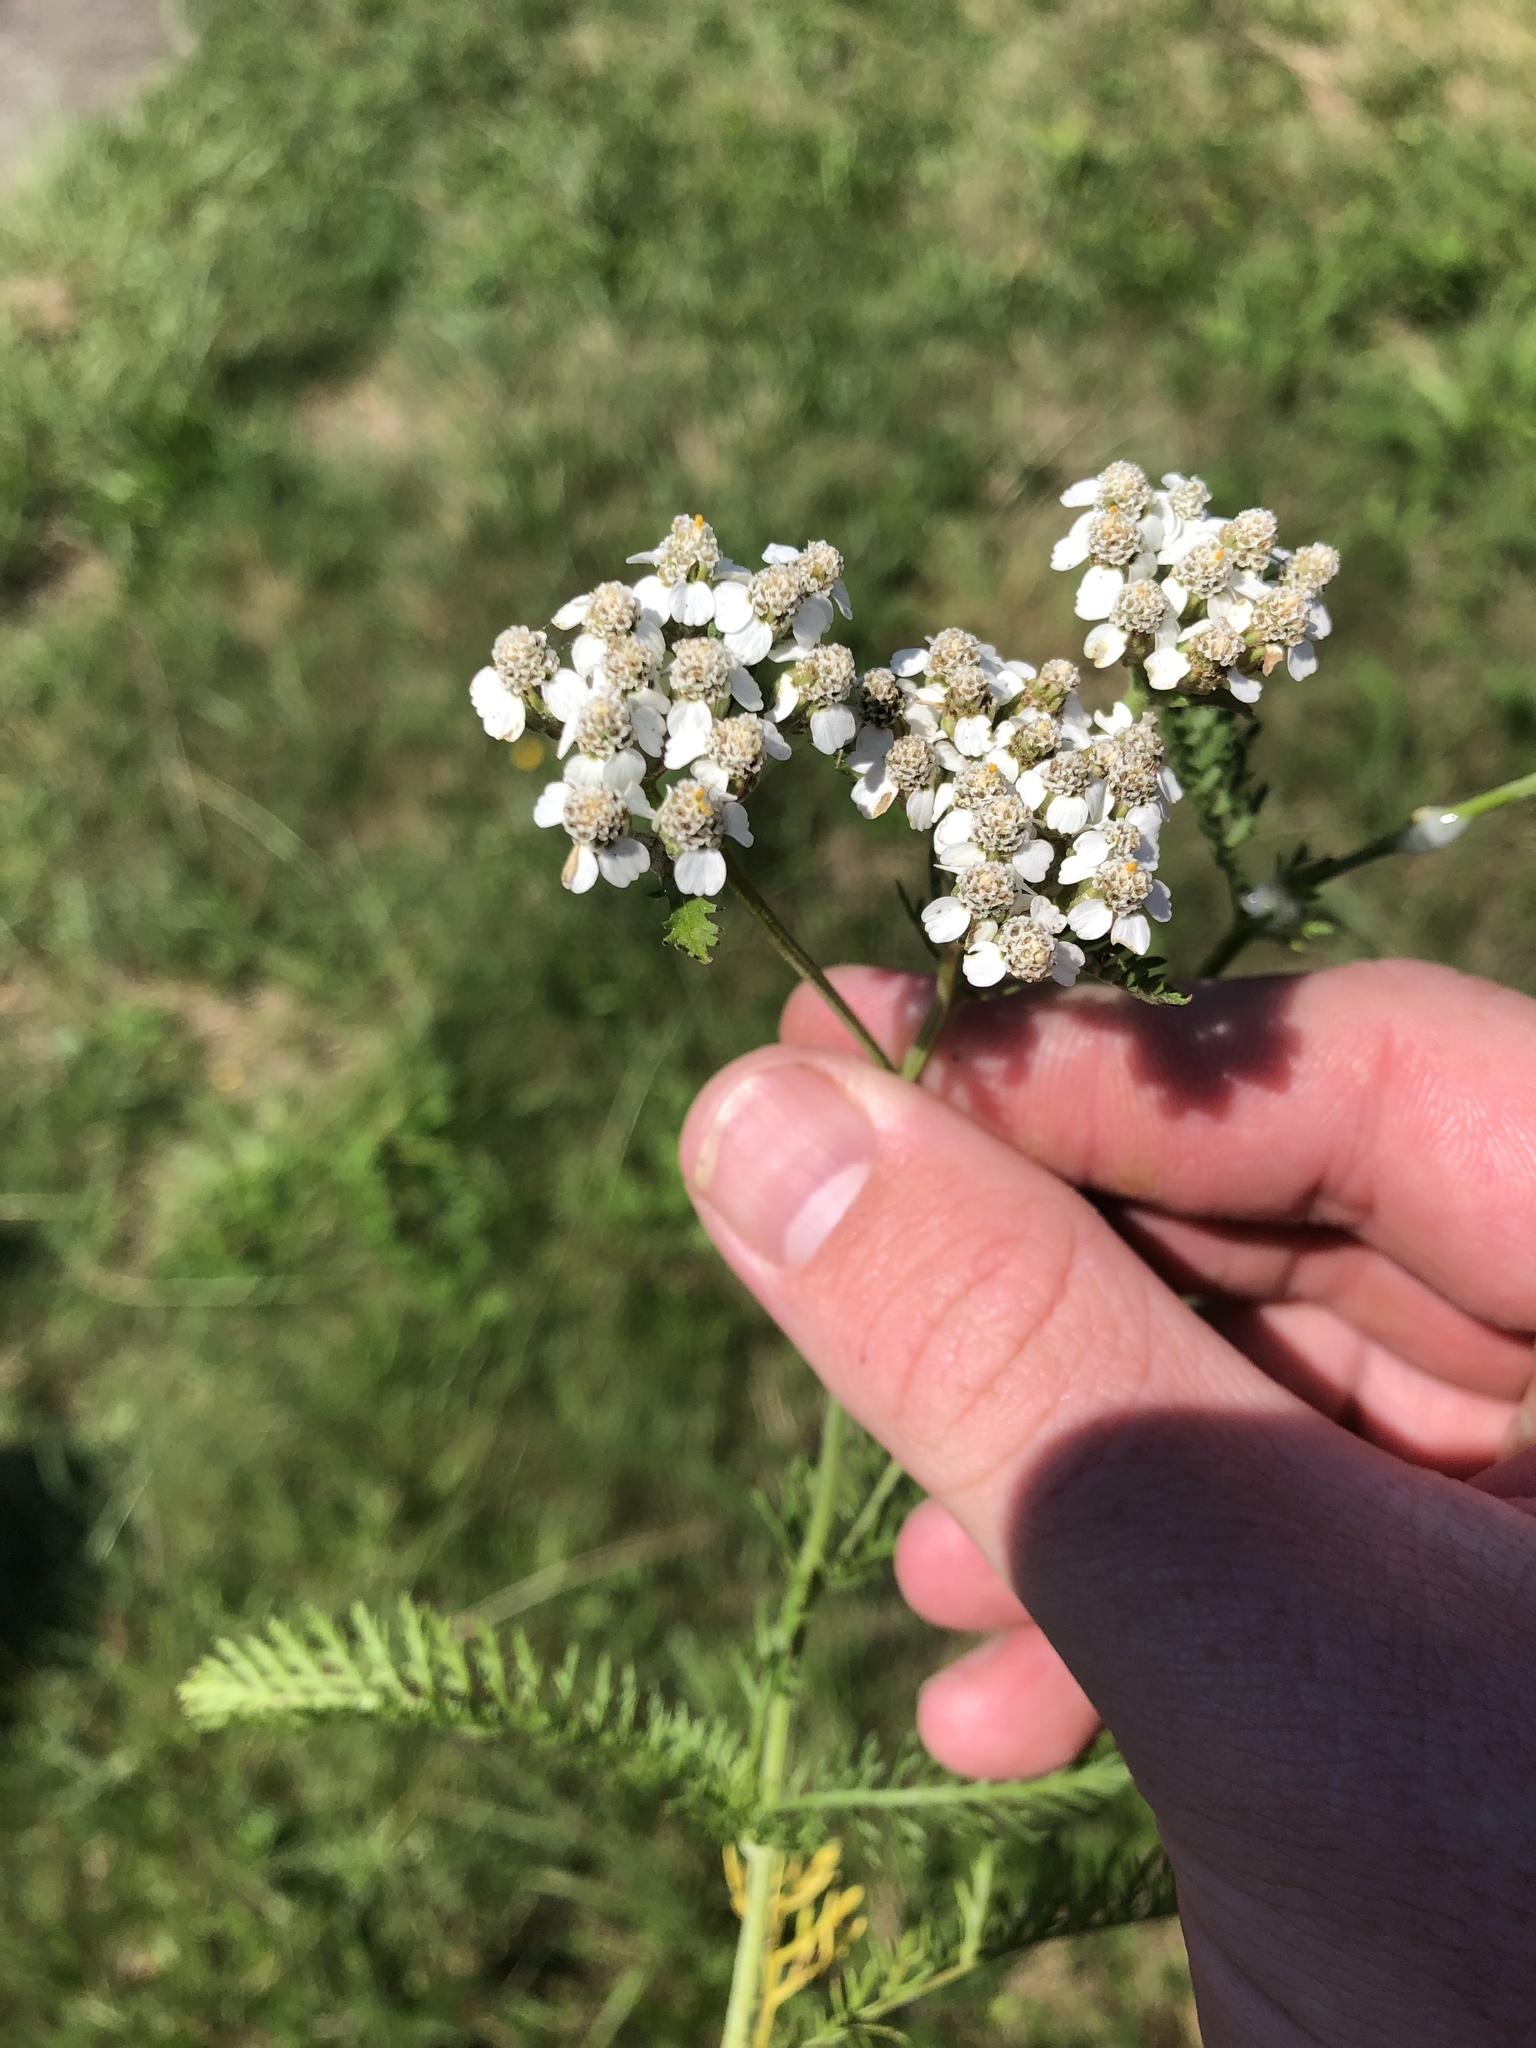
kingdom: Plantae
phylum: Tracheophyta
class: Magnoliopsida
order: Asterales
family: Asteraceae
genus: Achillea
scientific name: Achillea millefolium
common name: Yarrow
